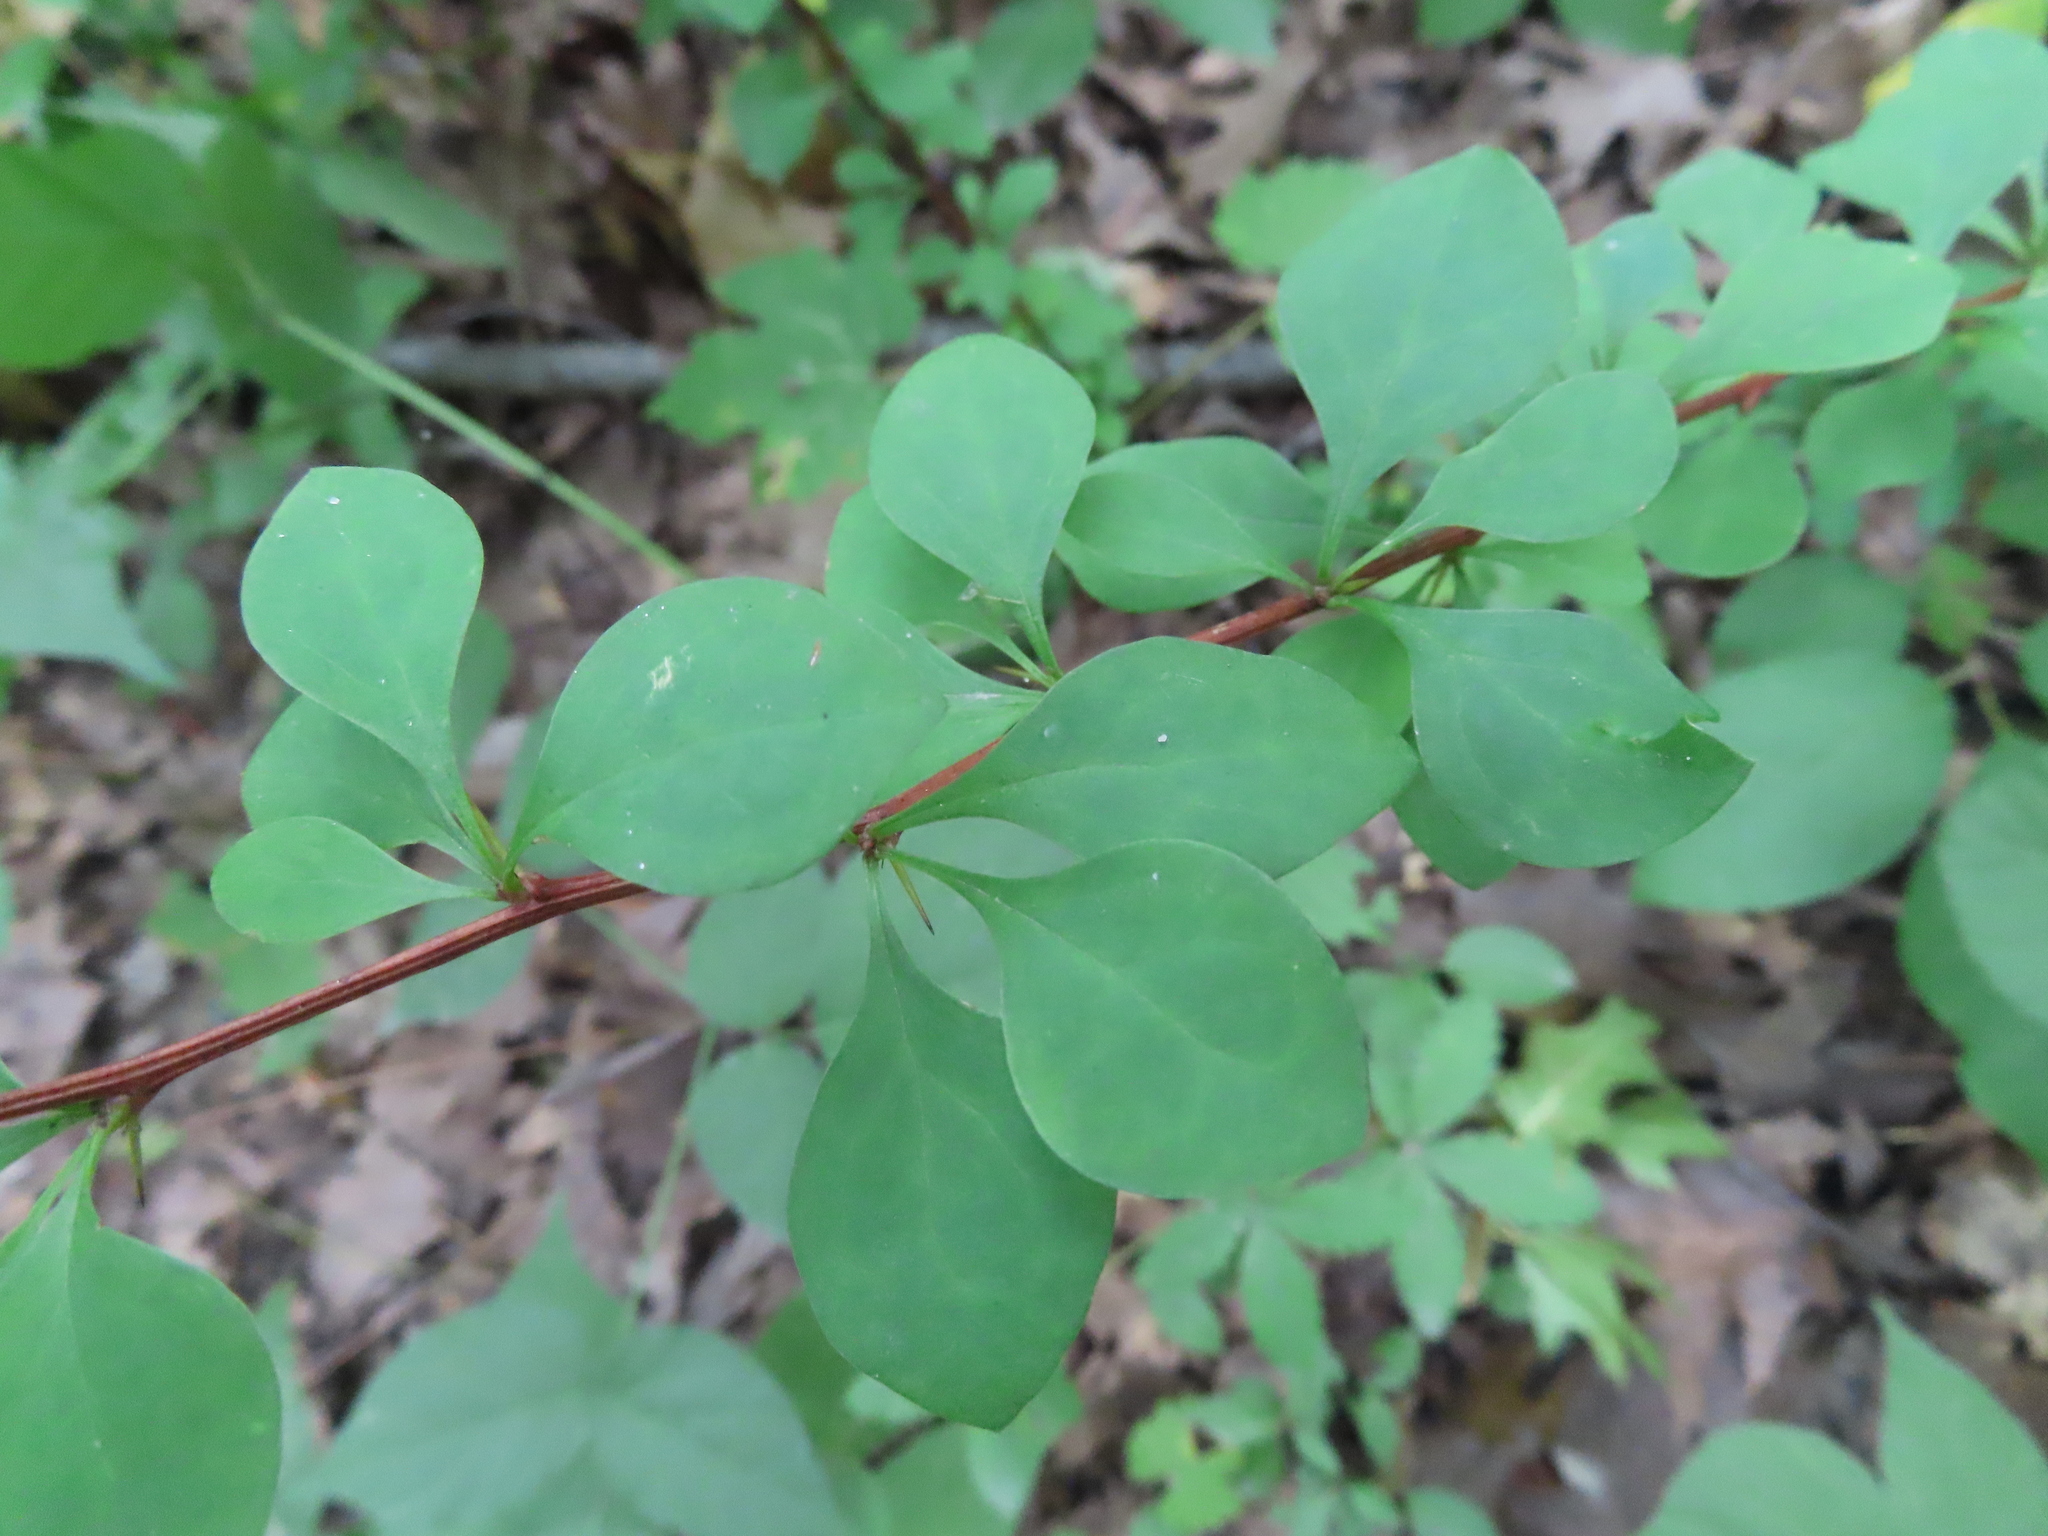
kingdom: Plantae
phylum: Tracheophyta
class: Magnoliopsida
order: Ranunculales
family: Berberidaceae
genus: Berberis
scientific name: Berberis thunbergii
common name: Japanese barberry
